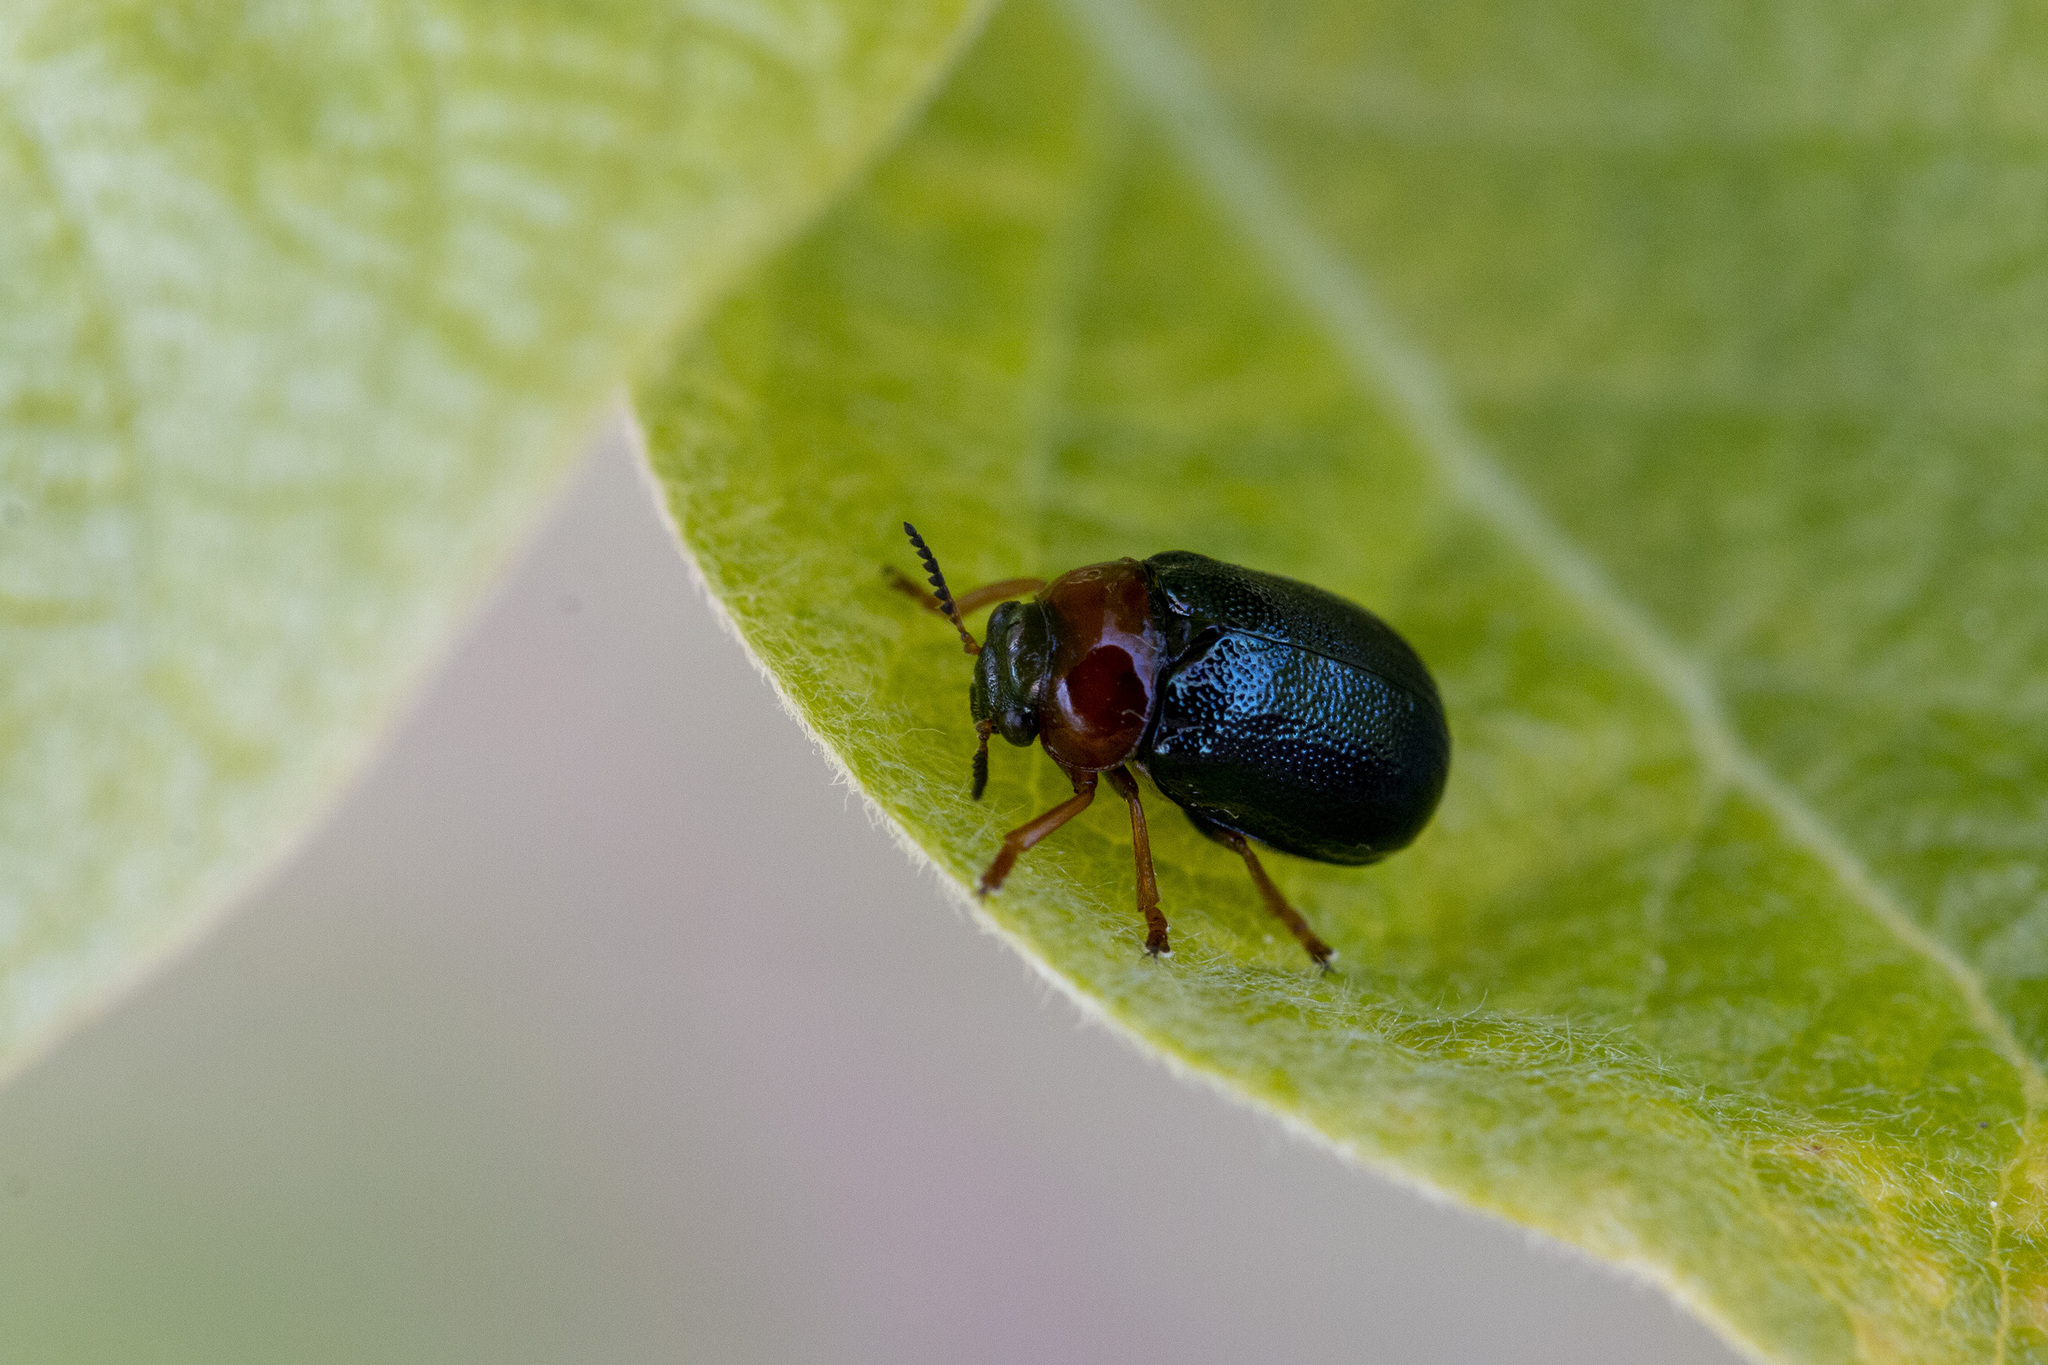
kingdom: Animalia
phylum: Arthropoda
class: Insecta
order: Coleoptera
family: Chrysomelidae
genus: Smaragdina
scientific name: Smaragdina salicina
